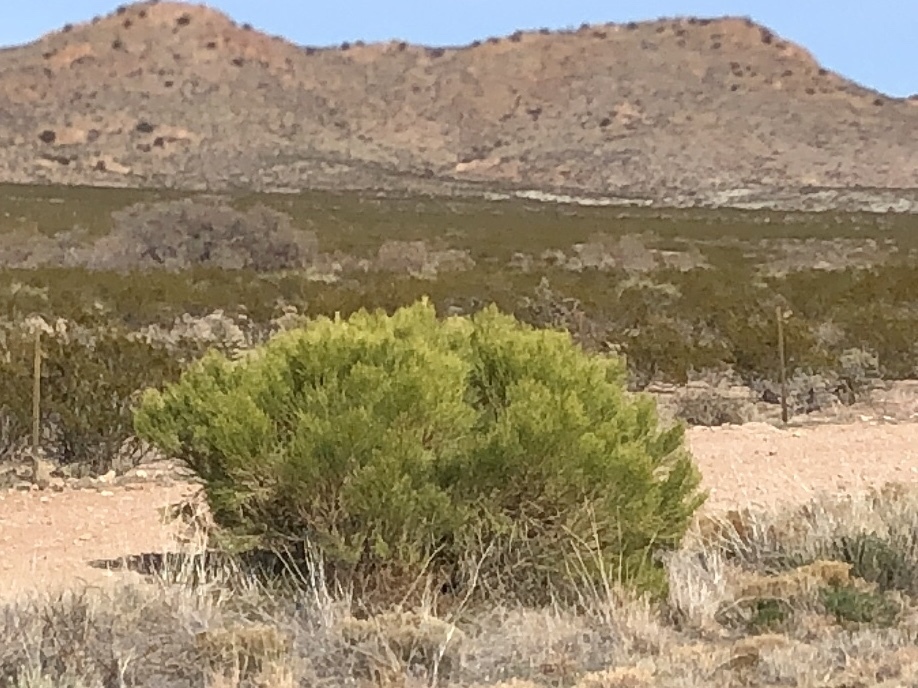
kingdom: Plantae
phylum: Tracheophyta
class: Magnoliopsida
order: Asterales
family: Asteraceae
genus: Baccharis
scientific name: Baccharis sarothroides
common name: Desert-broom
